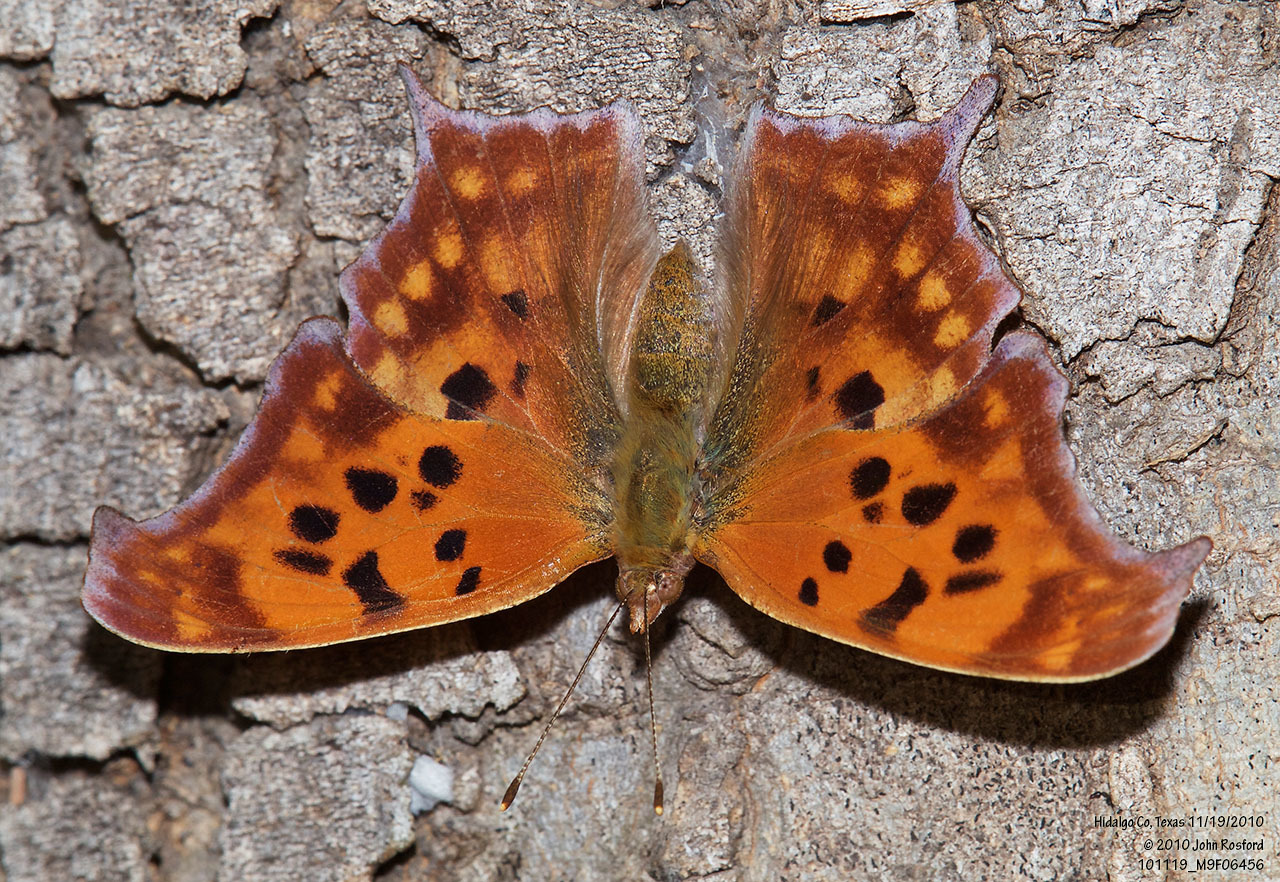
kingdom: Animalia
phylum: Arthropoda
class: Insecta
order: Lepidoptera
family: Nymphalidae
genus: Polygonia
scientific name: Polygonia interrogationis
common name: Question mark
